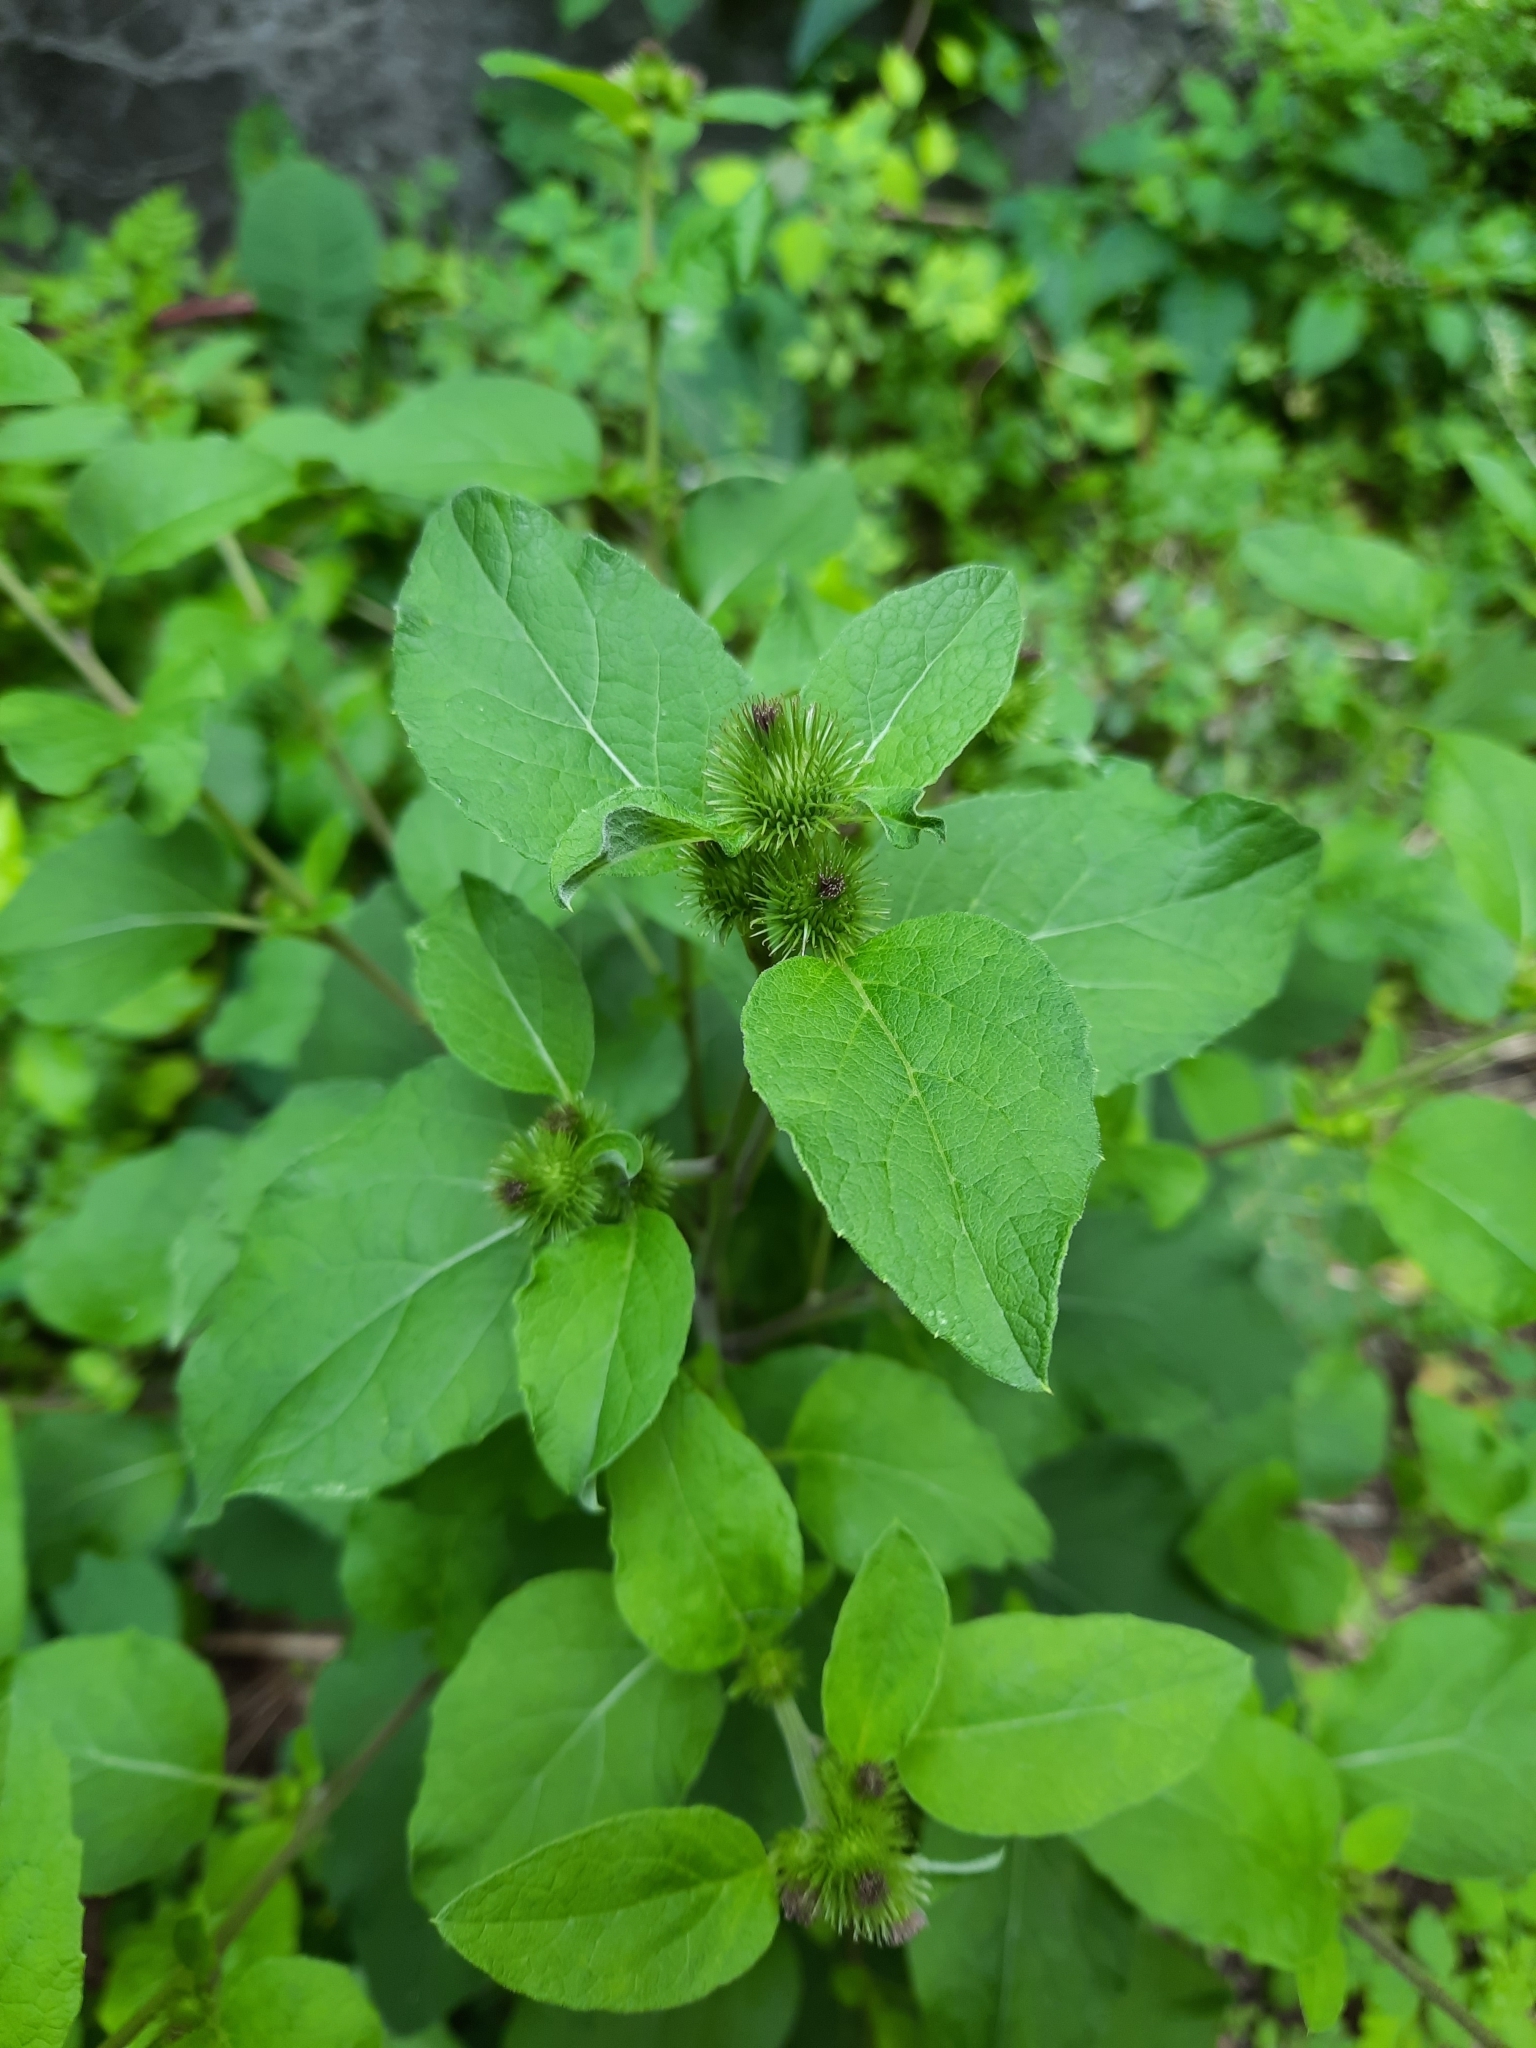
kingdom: Plantae
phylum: Tracheophyta
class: Magnoliopsida
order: Asterales
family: Asteraceae
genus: Arctium
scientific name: Arctium minus
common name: Lesser burdock
